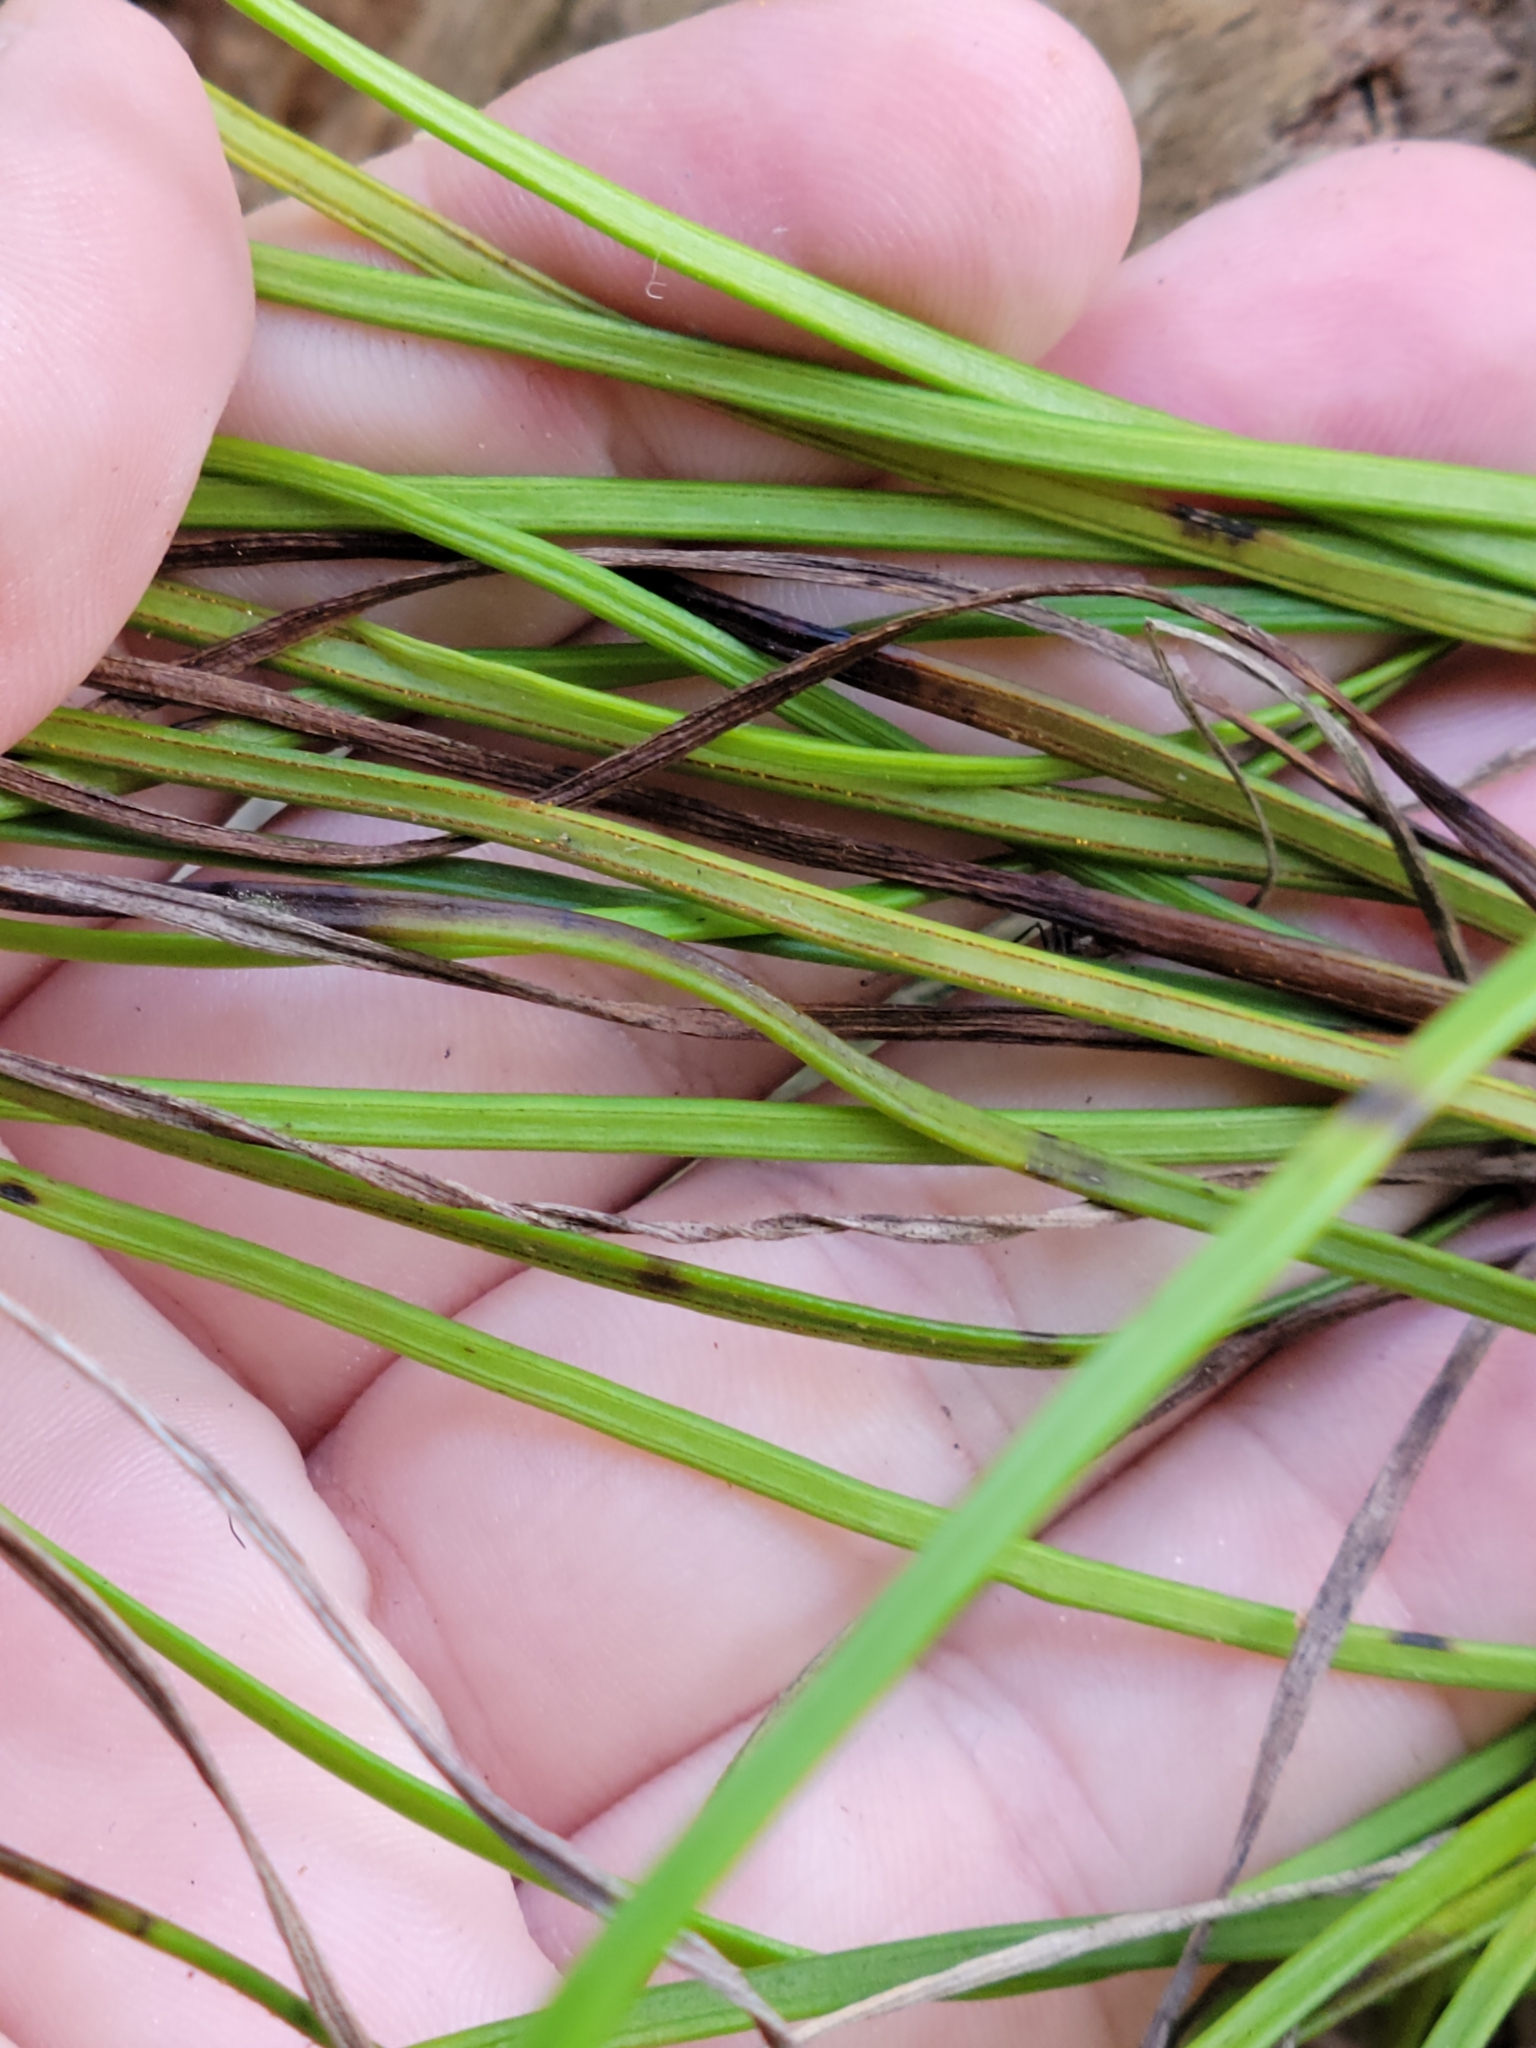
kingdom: Plantae
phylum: Tracheophyta
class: Polypodiopsida
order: Polypodiales
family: Pteridaceae
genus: Vittaria
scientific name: Vittaria lineata
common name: Shoestring fern
